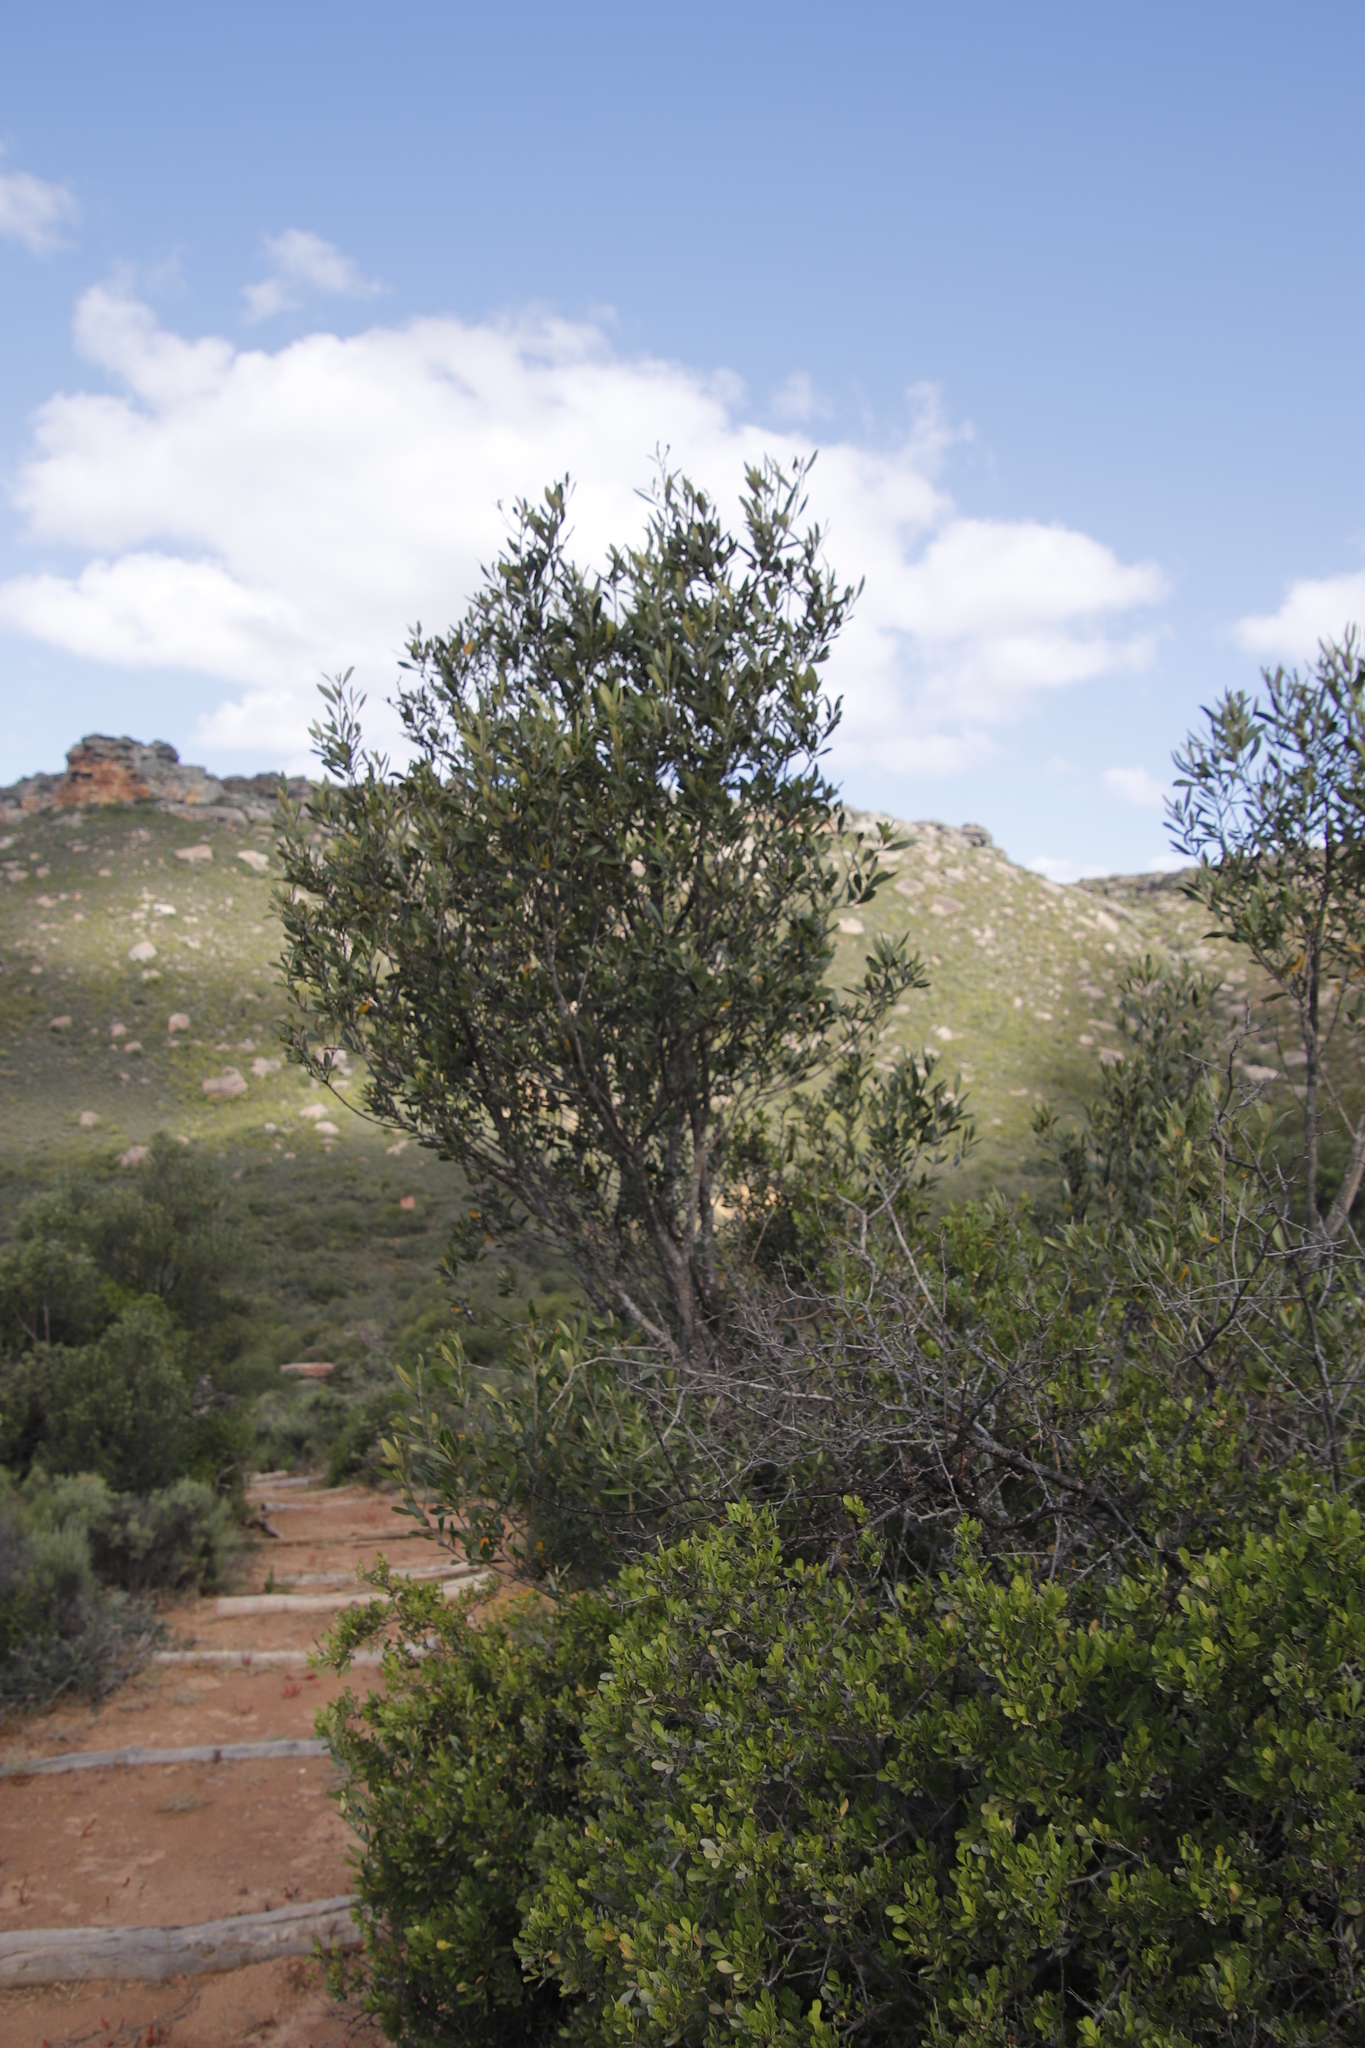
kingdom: Plantae
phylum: Tracheophyta
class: Magnoliopsida
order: Lamiales
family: Oleaceae
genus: Olea
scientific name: Olea europaea
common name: Olive
